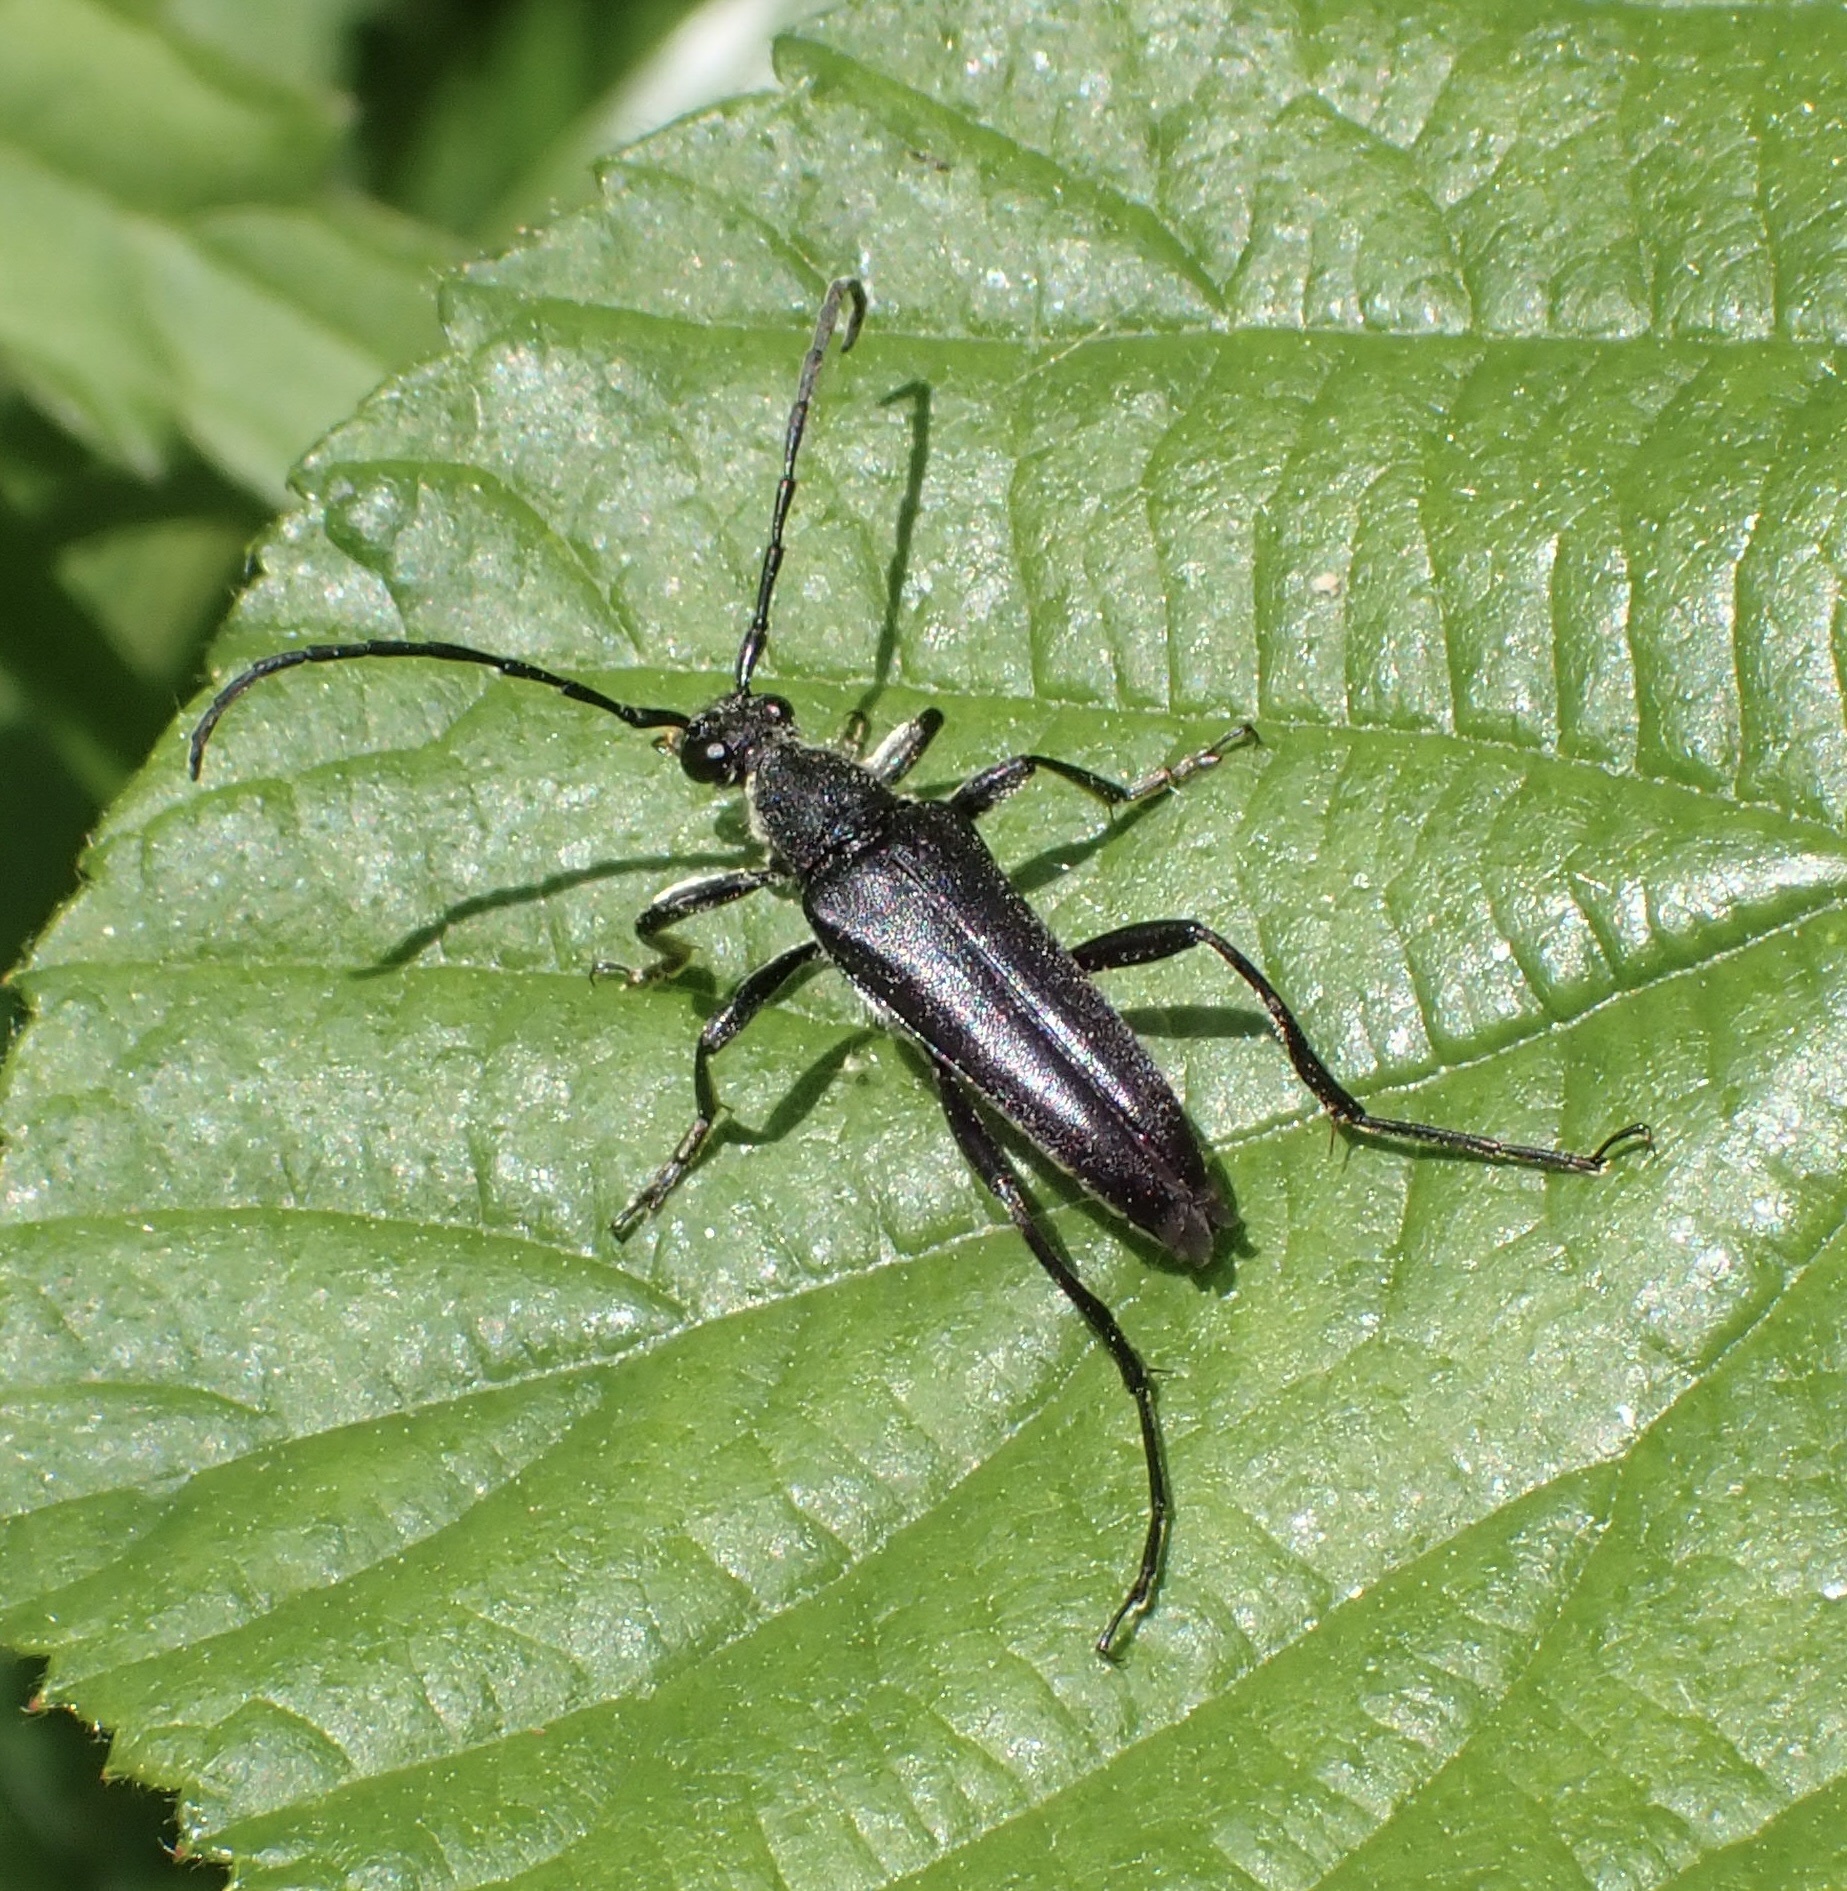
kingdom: Animalia
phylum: Arthropoda
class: Insecta
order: Coleoptera
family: Cerambycidae
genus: Leptura
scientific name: Leptura aethiops
